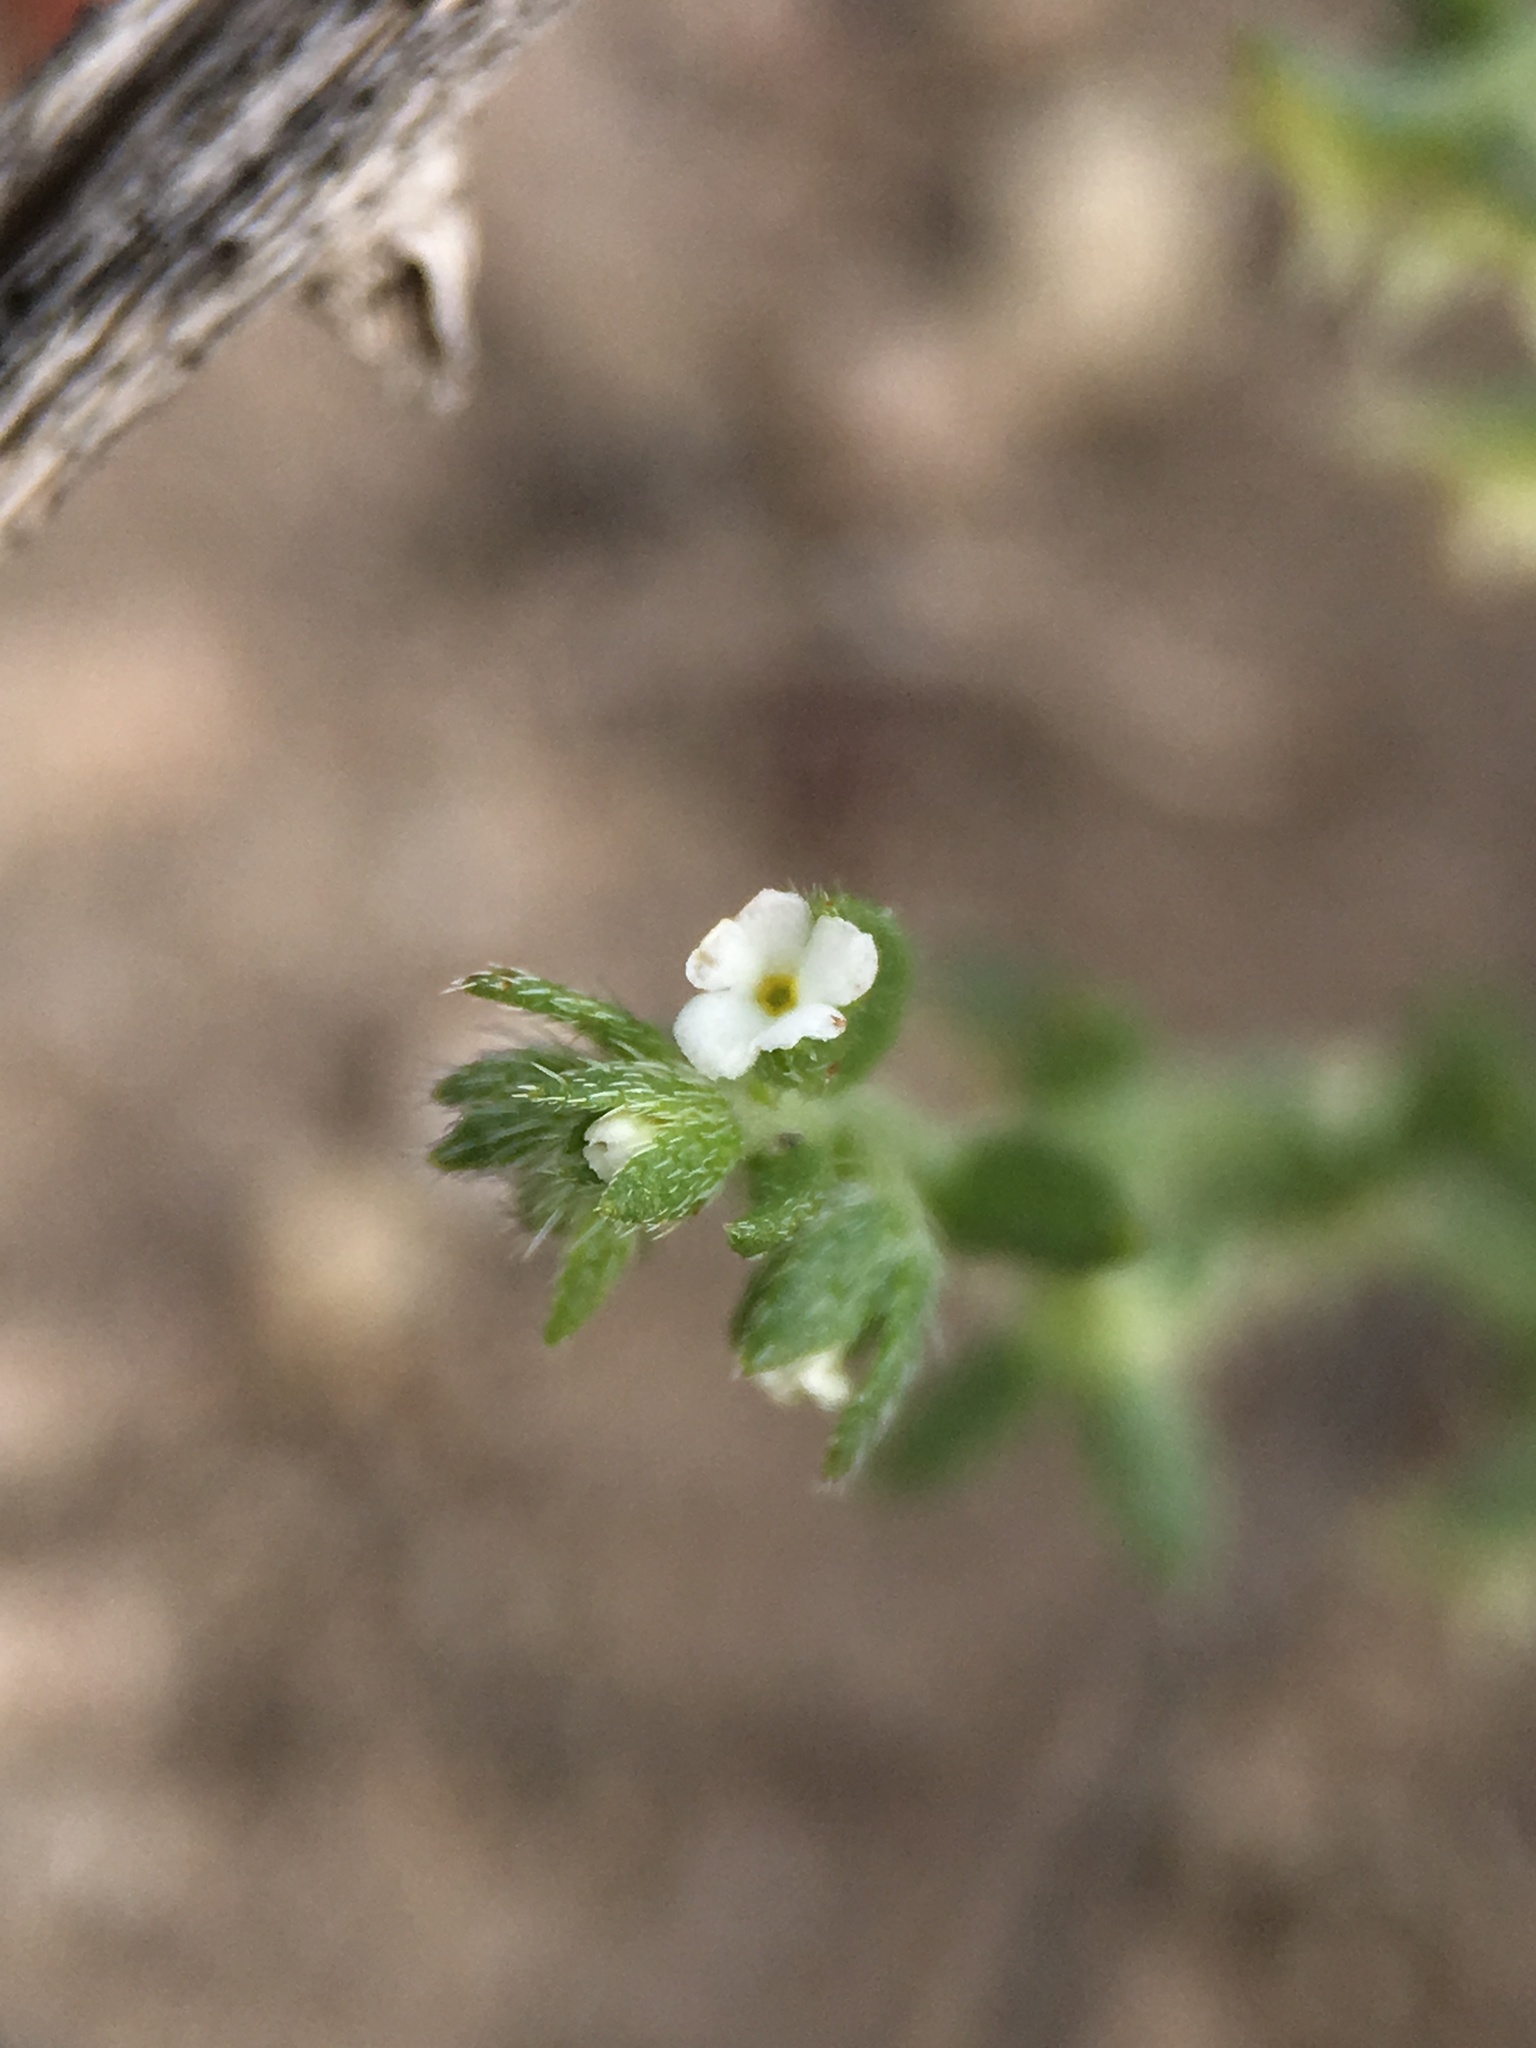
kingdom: Plantae
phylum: Tracheophyta
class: Magnoliopsida
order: Boraginales
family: Boraginaceae
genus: Pectocarya
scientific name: Pectocarya platycarpa
